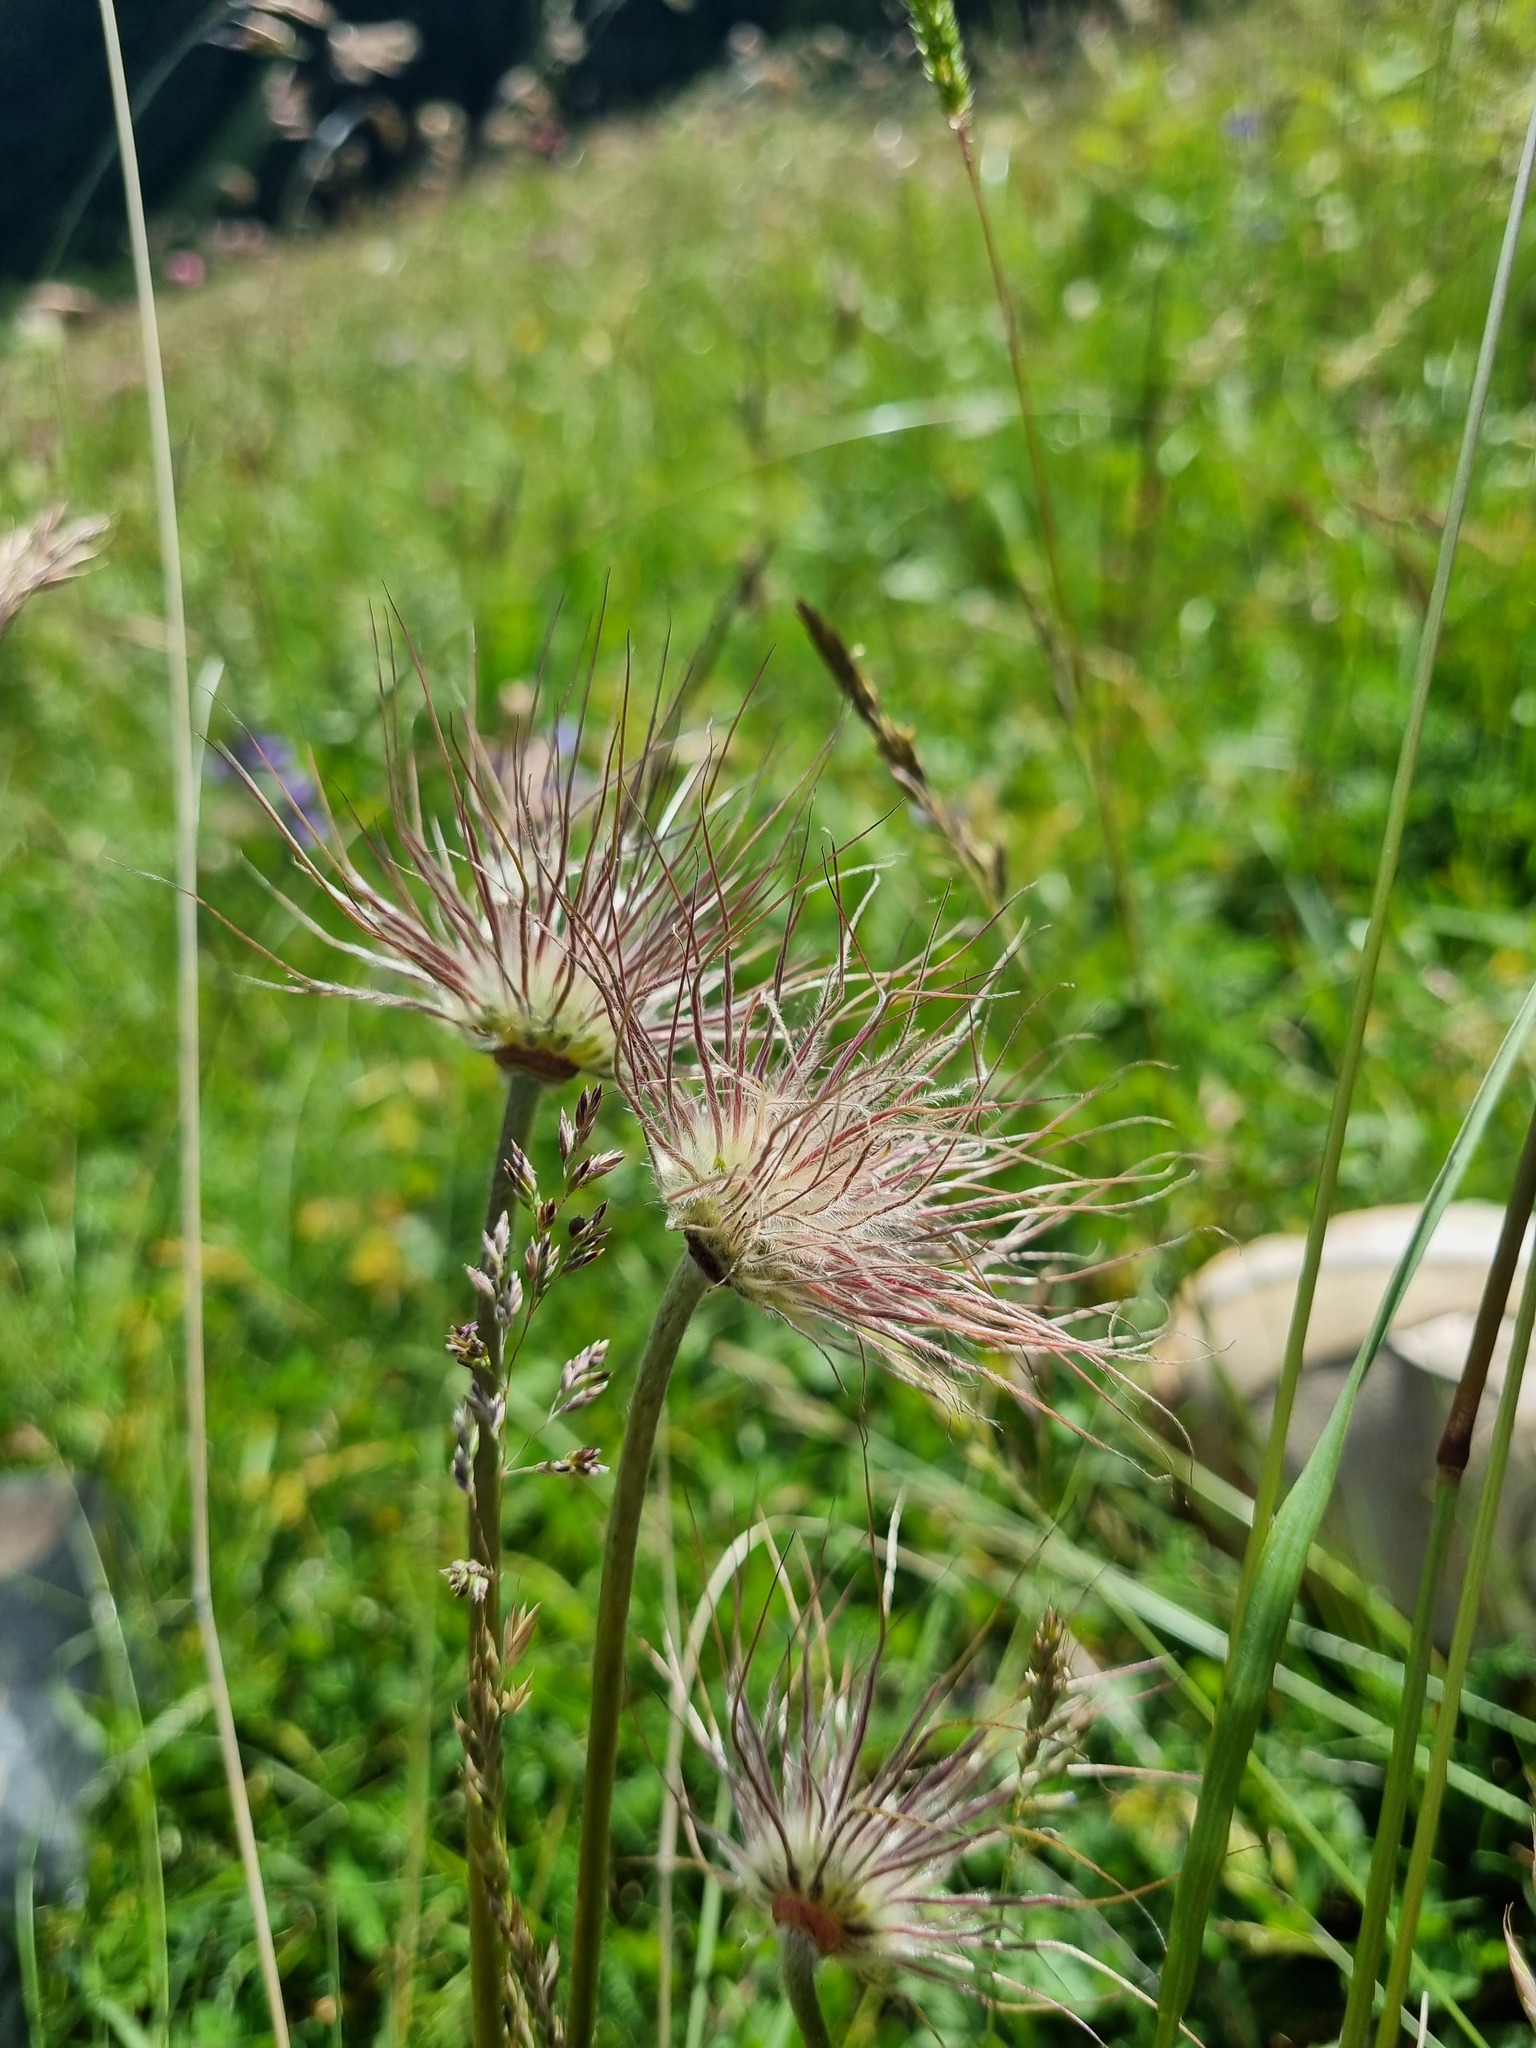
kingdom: Plantae
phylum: Tracheophyta
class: Magnoliopsida
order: Ranunculales
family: Ranunculaceae
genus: Pulsatilla
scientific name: Pulsatilla aurea
